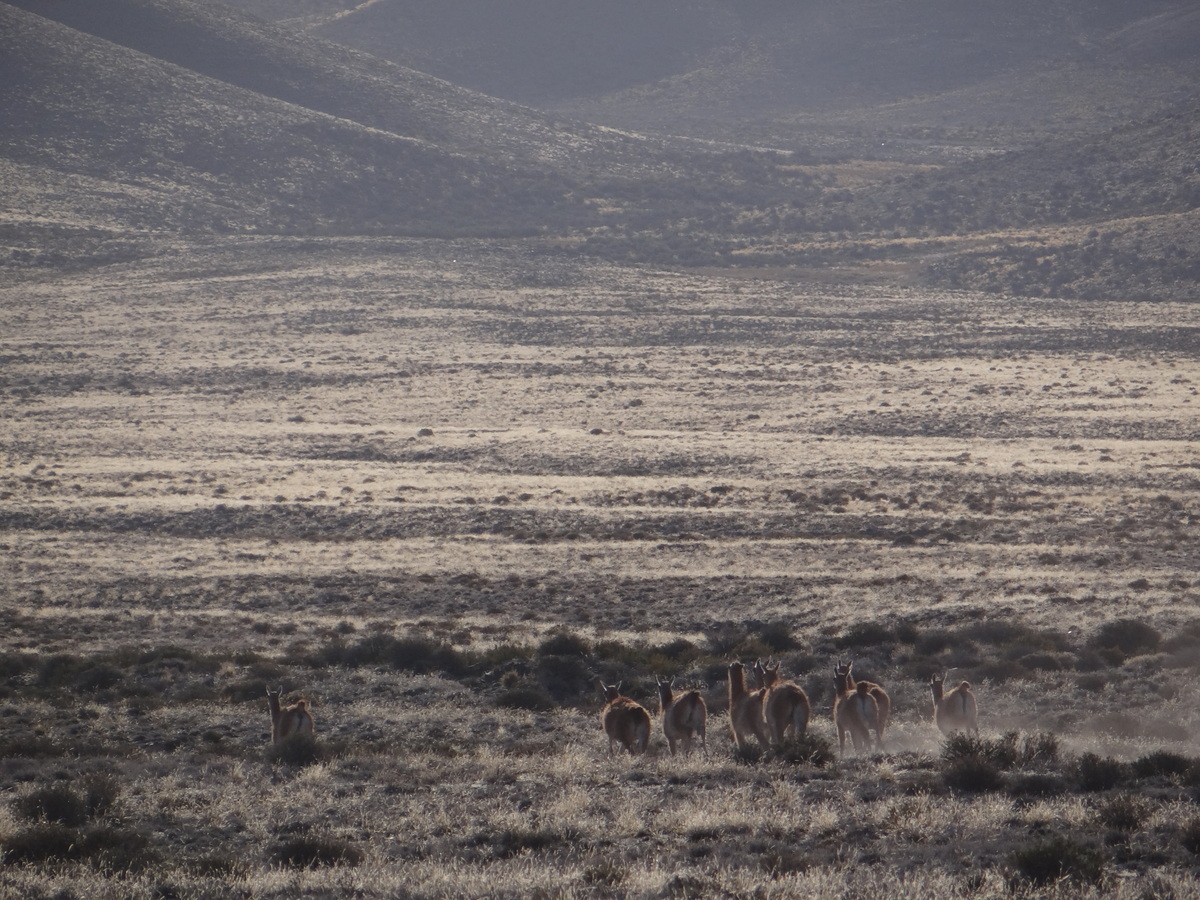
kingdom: Animalia
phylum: Chordata
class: Mammalia
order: Artiodactyla
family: Camelidae
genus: Lama
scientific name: Lama glama
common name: Llama
